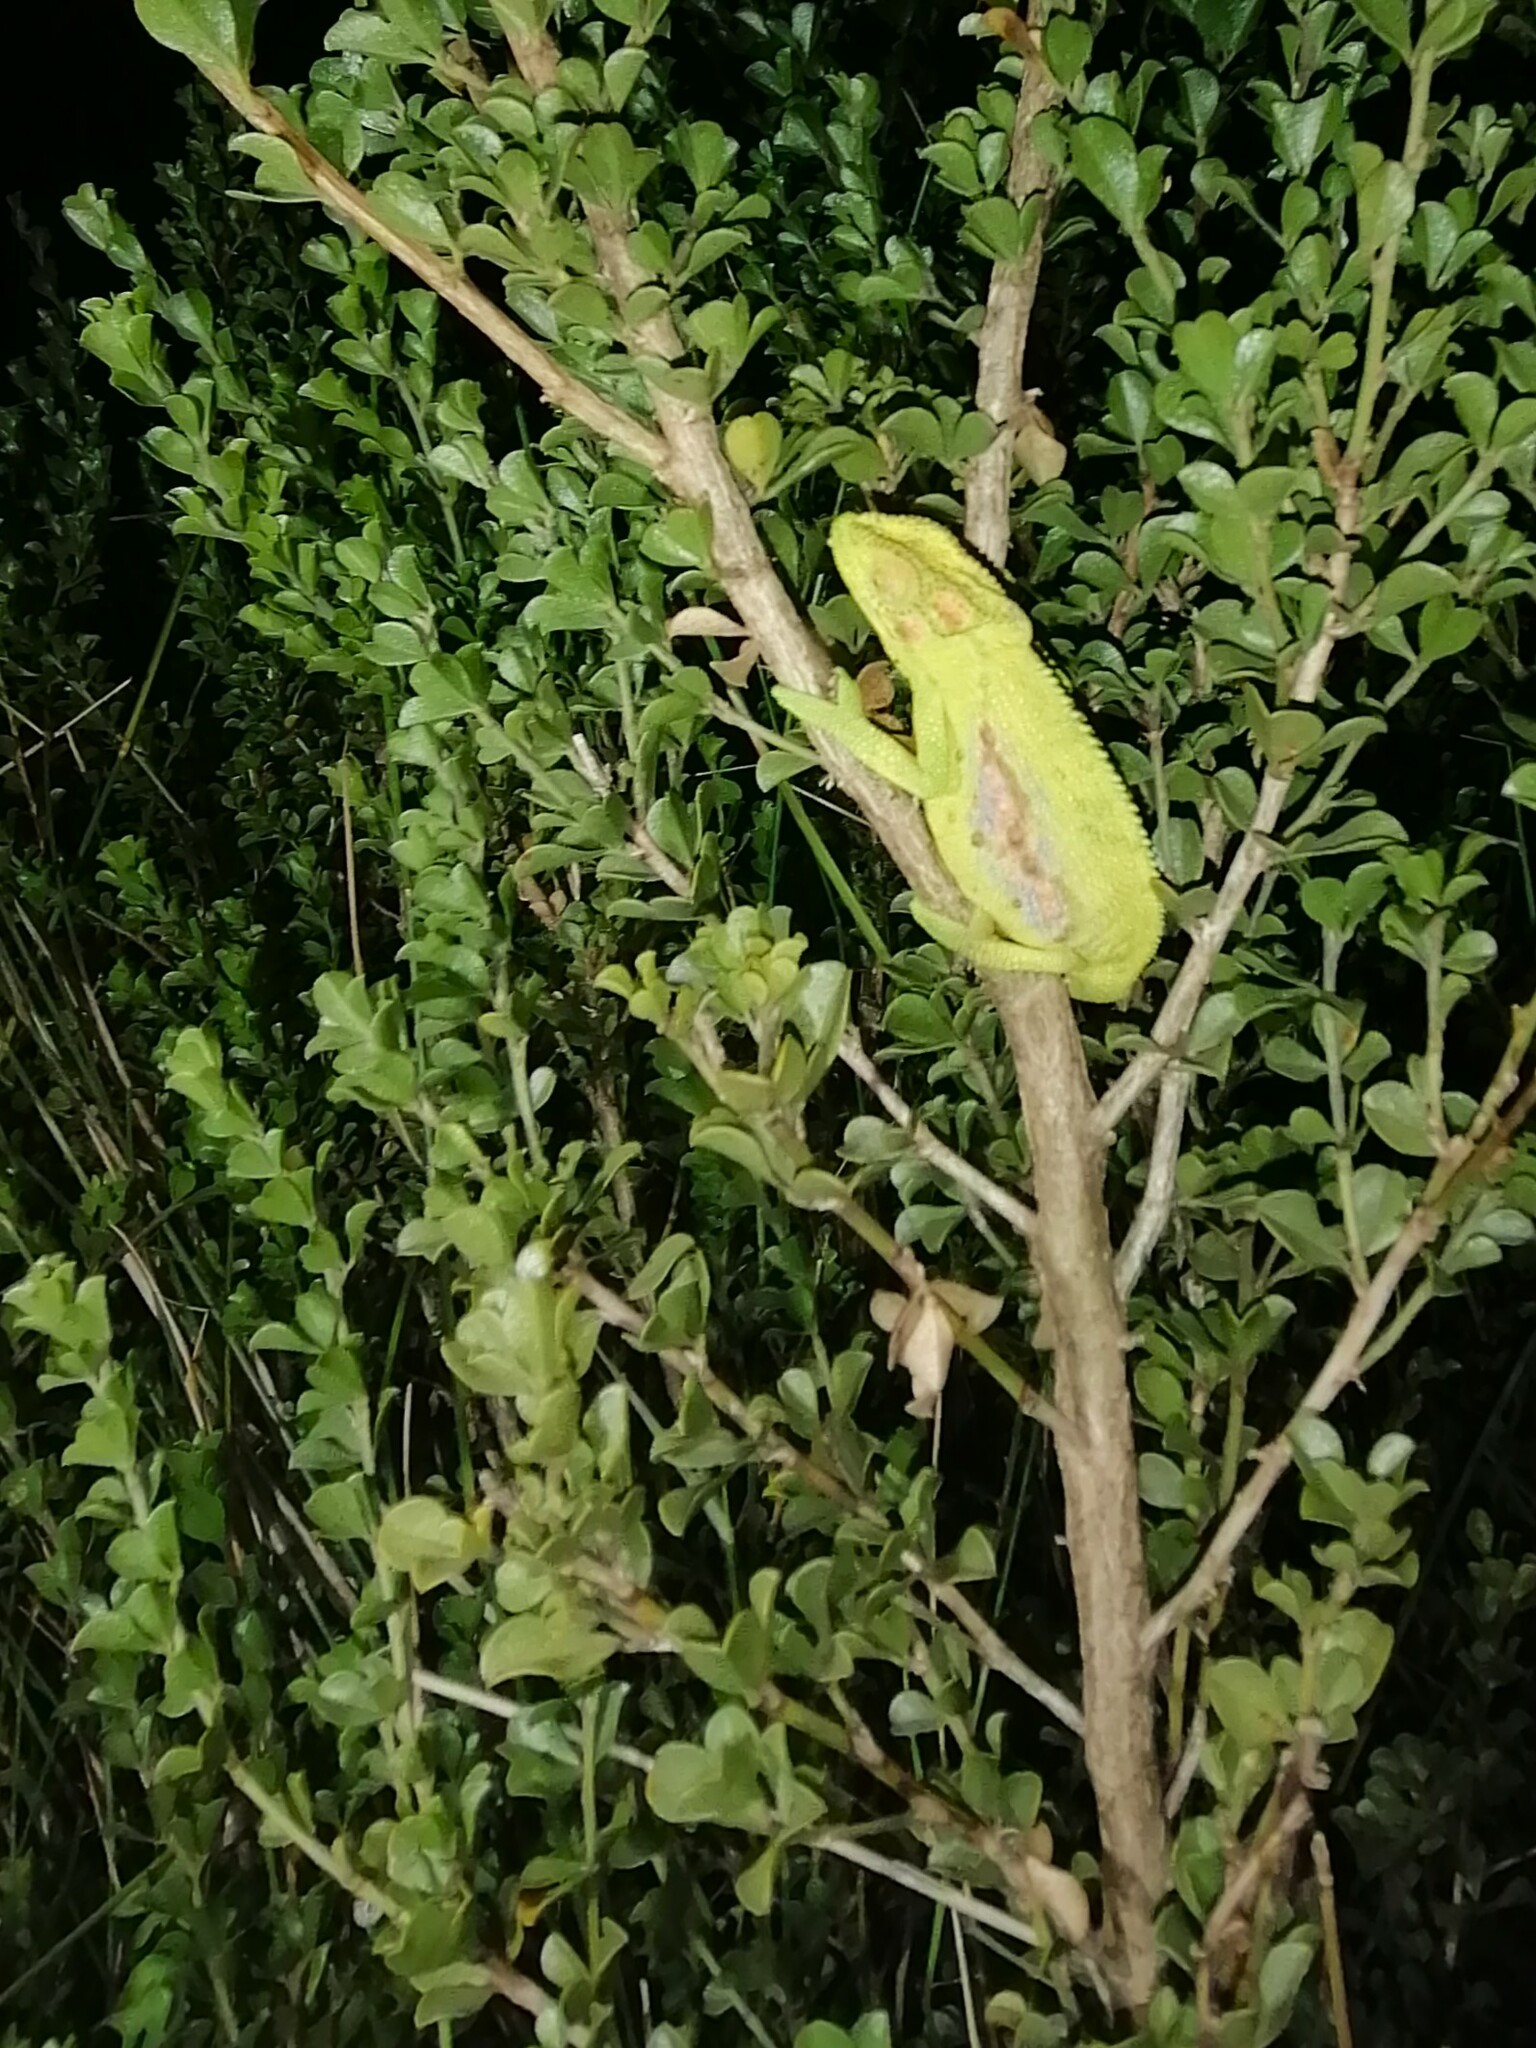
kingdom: Animalia
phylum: Chordata
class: Squamata
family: Chamaeleonidae
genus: Bradypodion
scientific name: Bradypodion pumilum
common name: Cape dwarf chameleon
